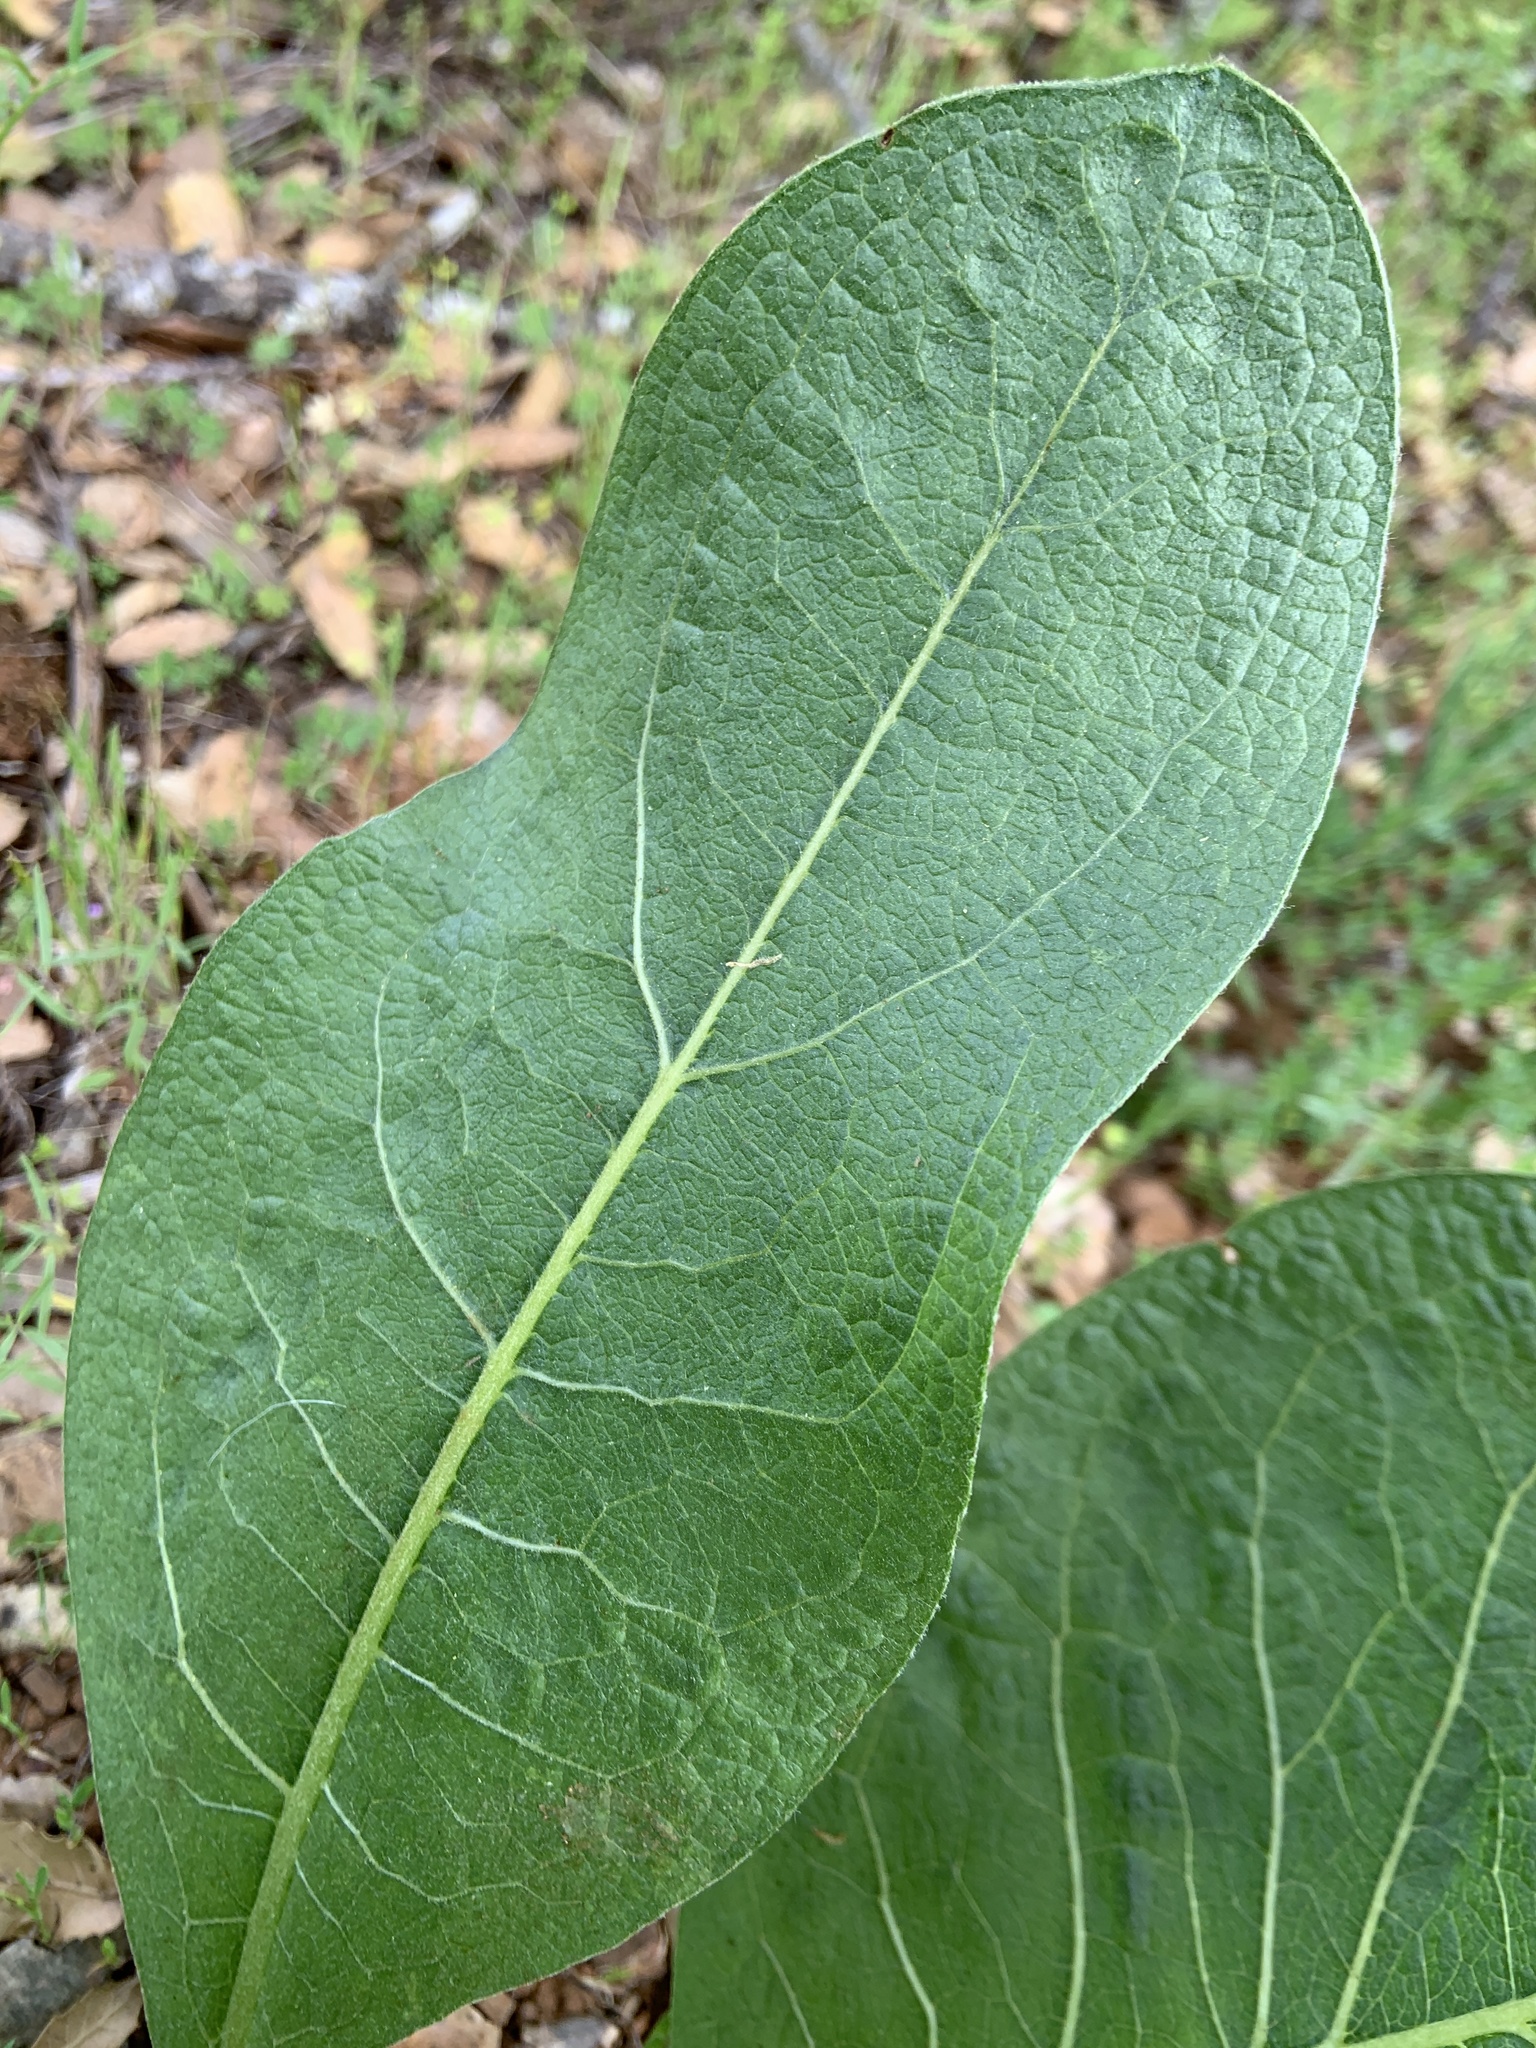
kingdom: Plantae
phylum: Tracheophyta
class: Magnoliopsida
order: Asterales
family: Asteraceae
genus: Wyethia
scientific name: Wyethia glabra
